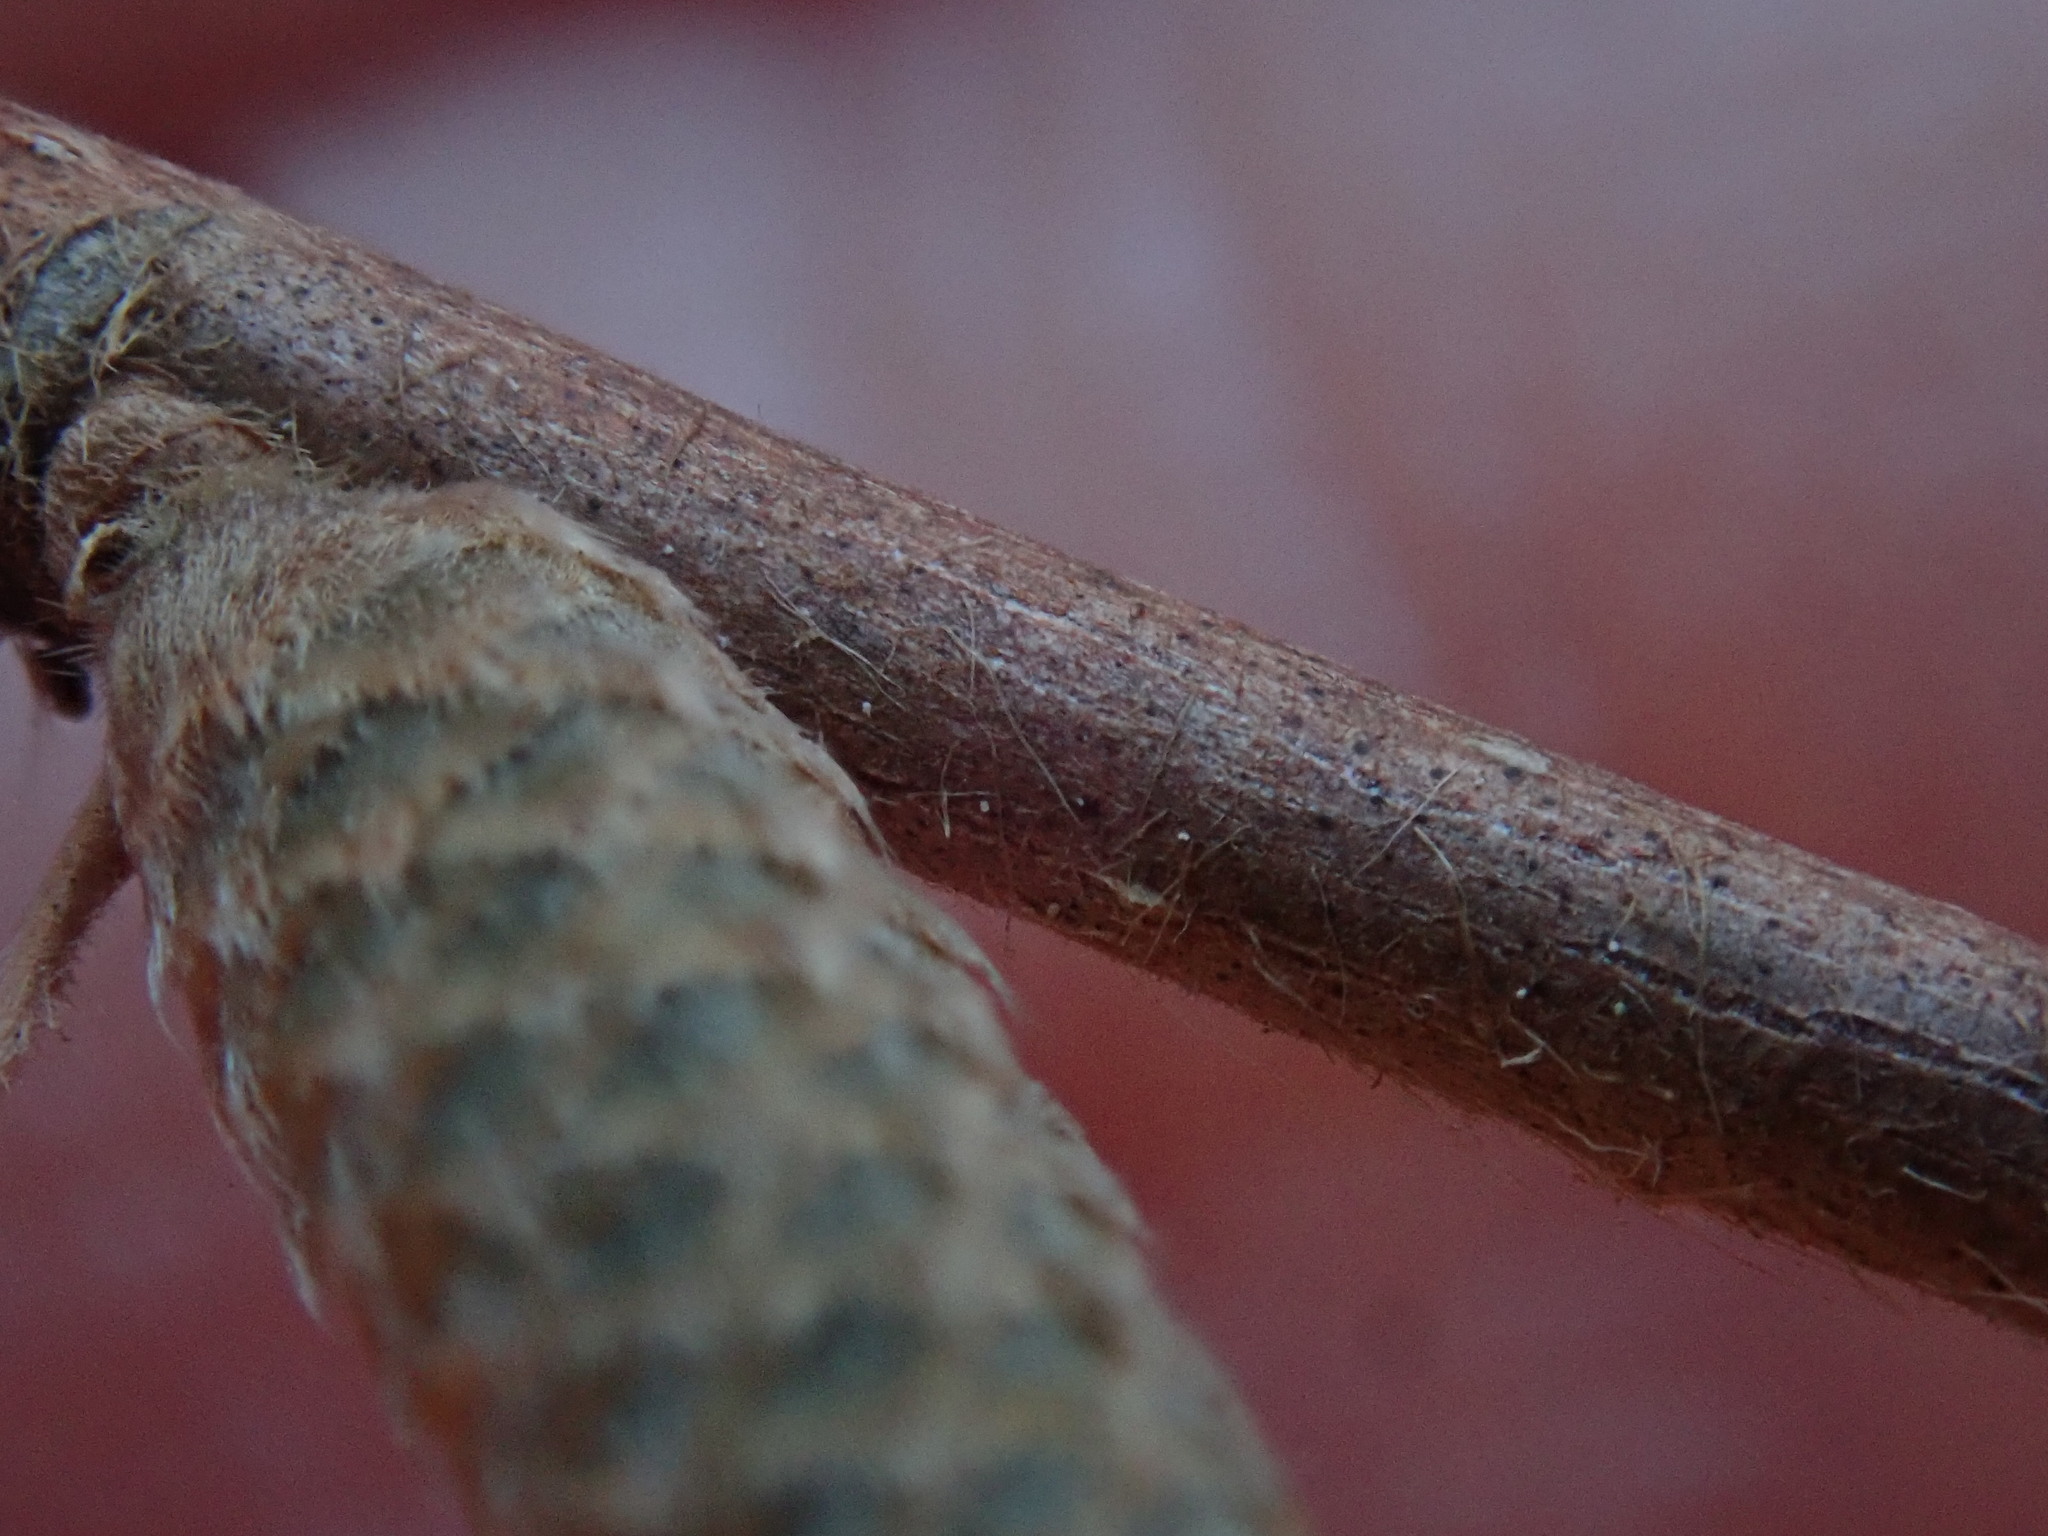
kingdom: Plantae
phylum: Tracheophyta
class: Magnoliopsida
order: Fagales
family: Betulaceae
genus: Corylus
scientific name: Corylus cornuta
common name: Beaked hazel
